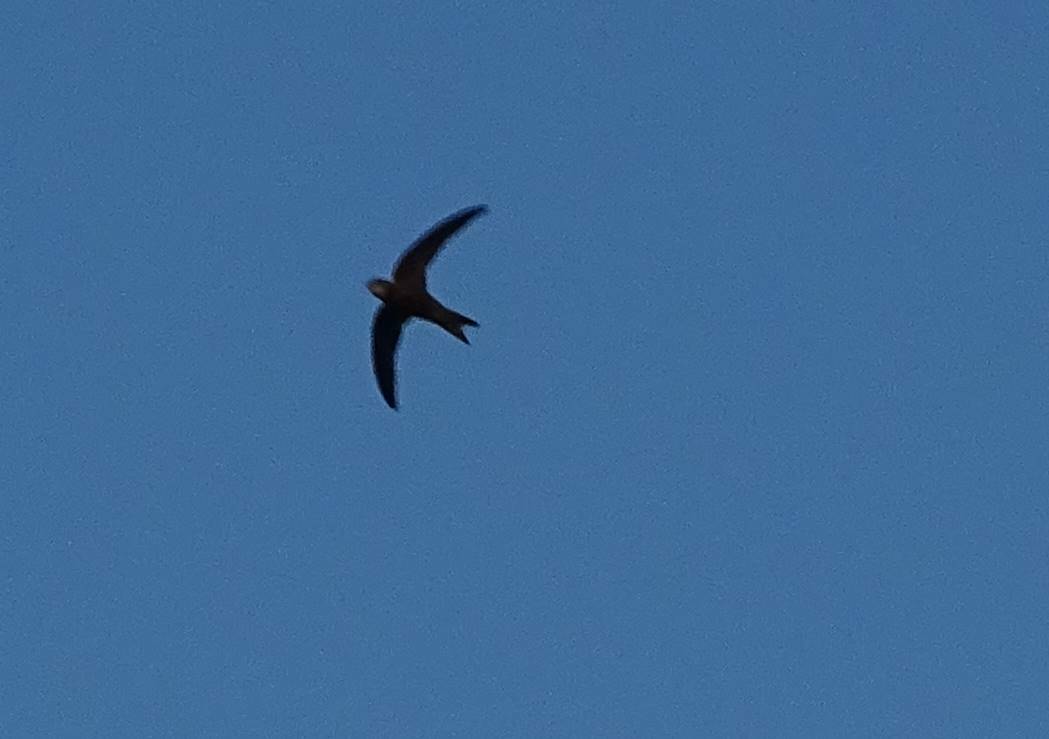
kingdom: Animalia
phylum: Chordata
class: Aves
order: Apodiformes
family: Apodidae
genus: Apus
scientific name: Apus pallidus
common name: Pallid swift
